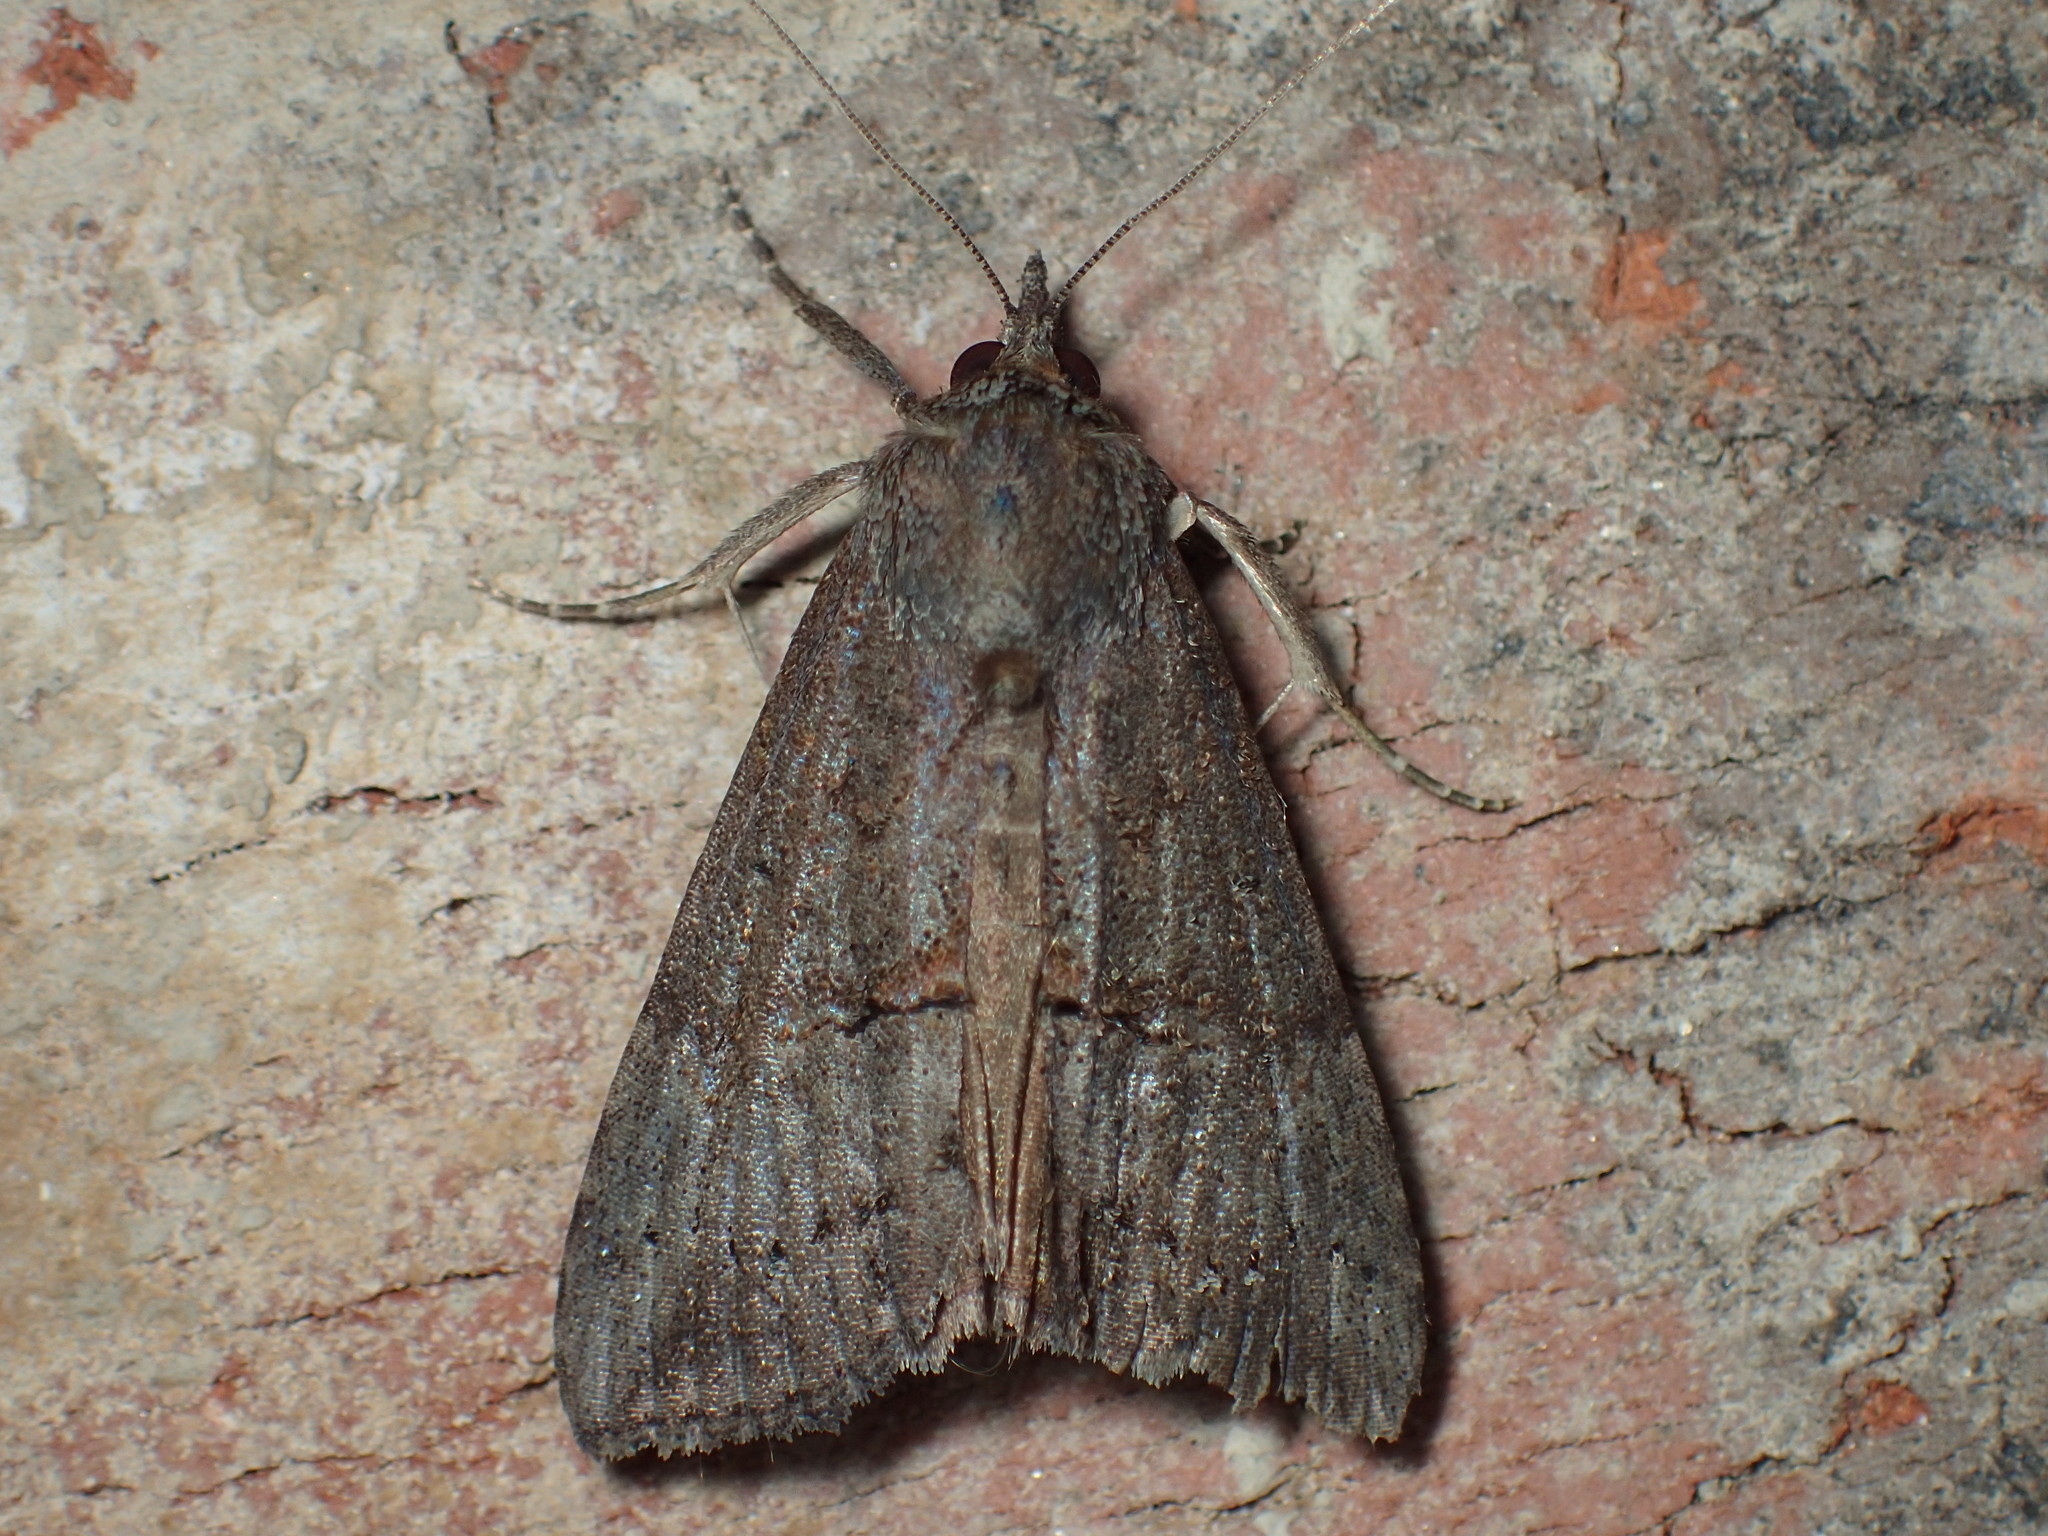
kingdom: Animalia
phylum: Arthropoda
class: Insecta
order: Lepidoptera
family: Erebidae
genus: Hypena
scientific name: Hypena scabra
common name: Green cloverworm
